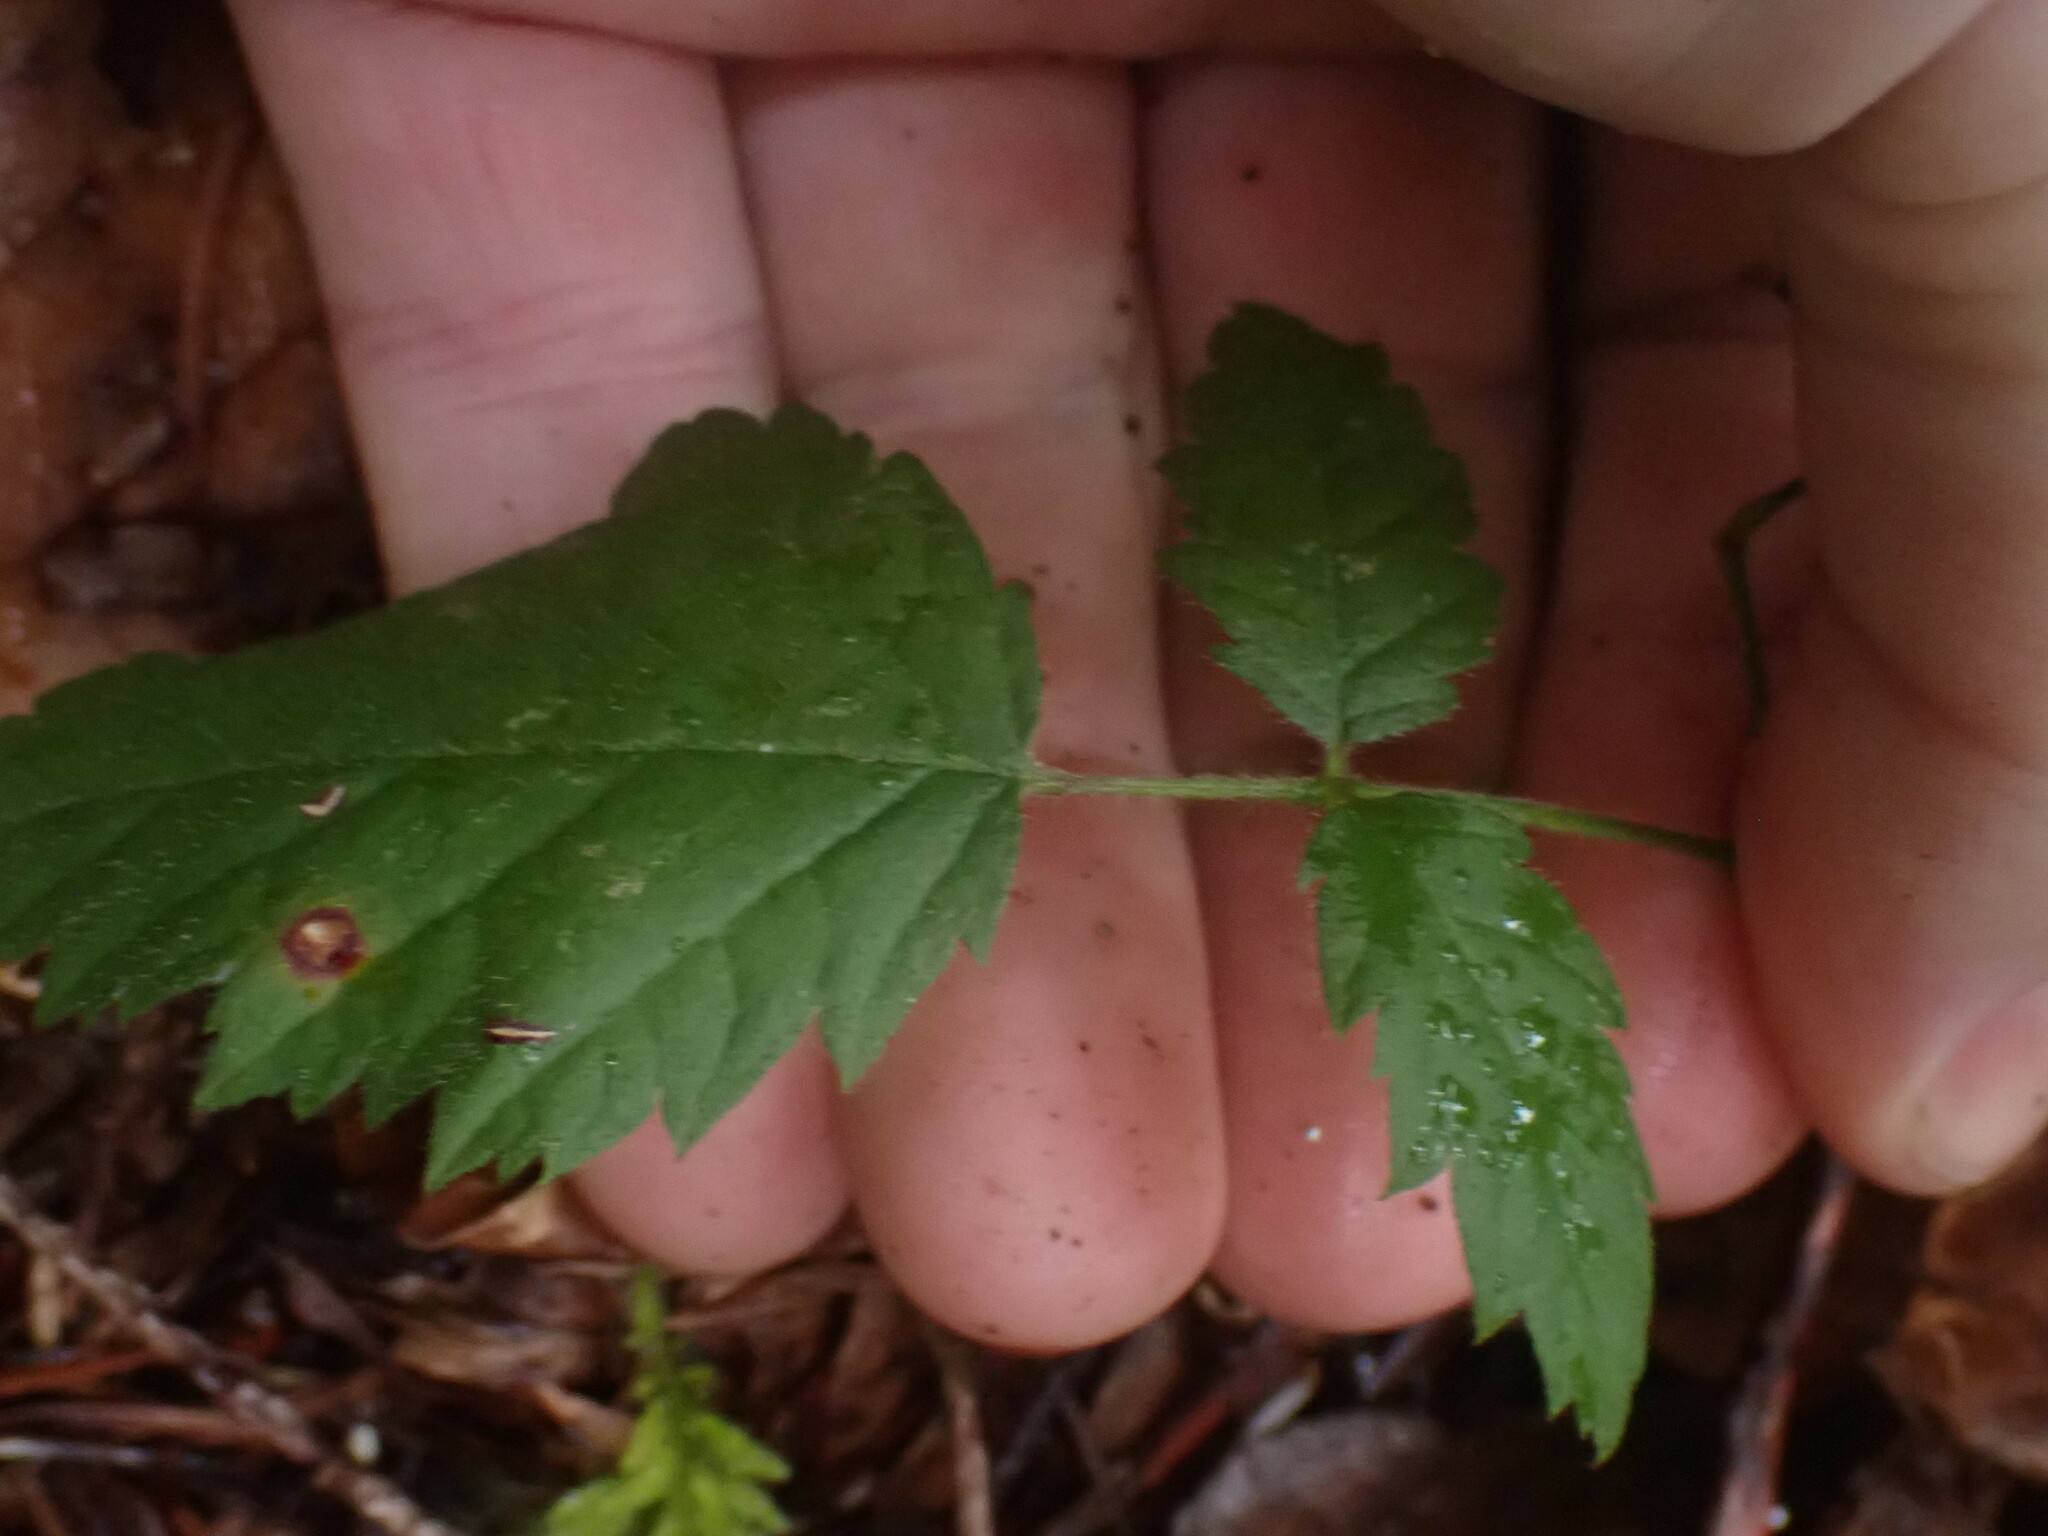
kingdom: Plantae
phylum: Tracheophyta
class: Magnoliopsida
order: Rosales
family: Rosaceae
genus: Rubus
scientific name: Rubus ursinus
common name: Pacific blackberry
